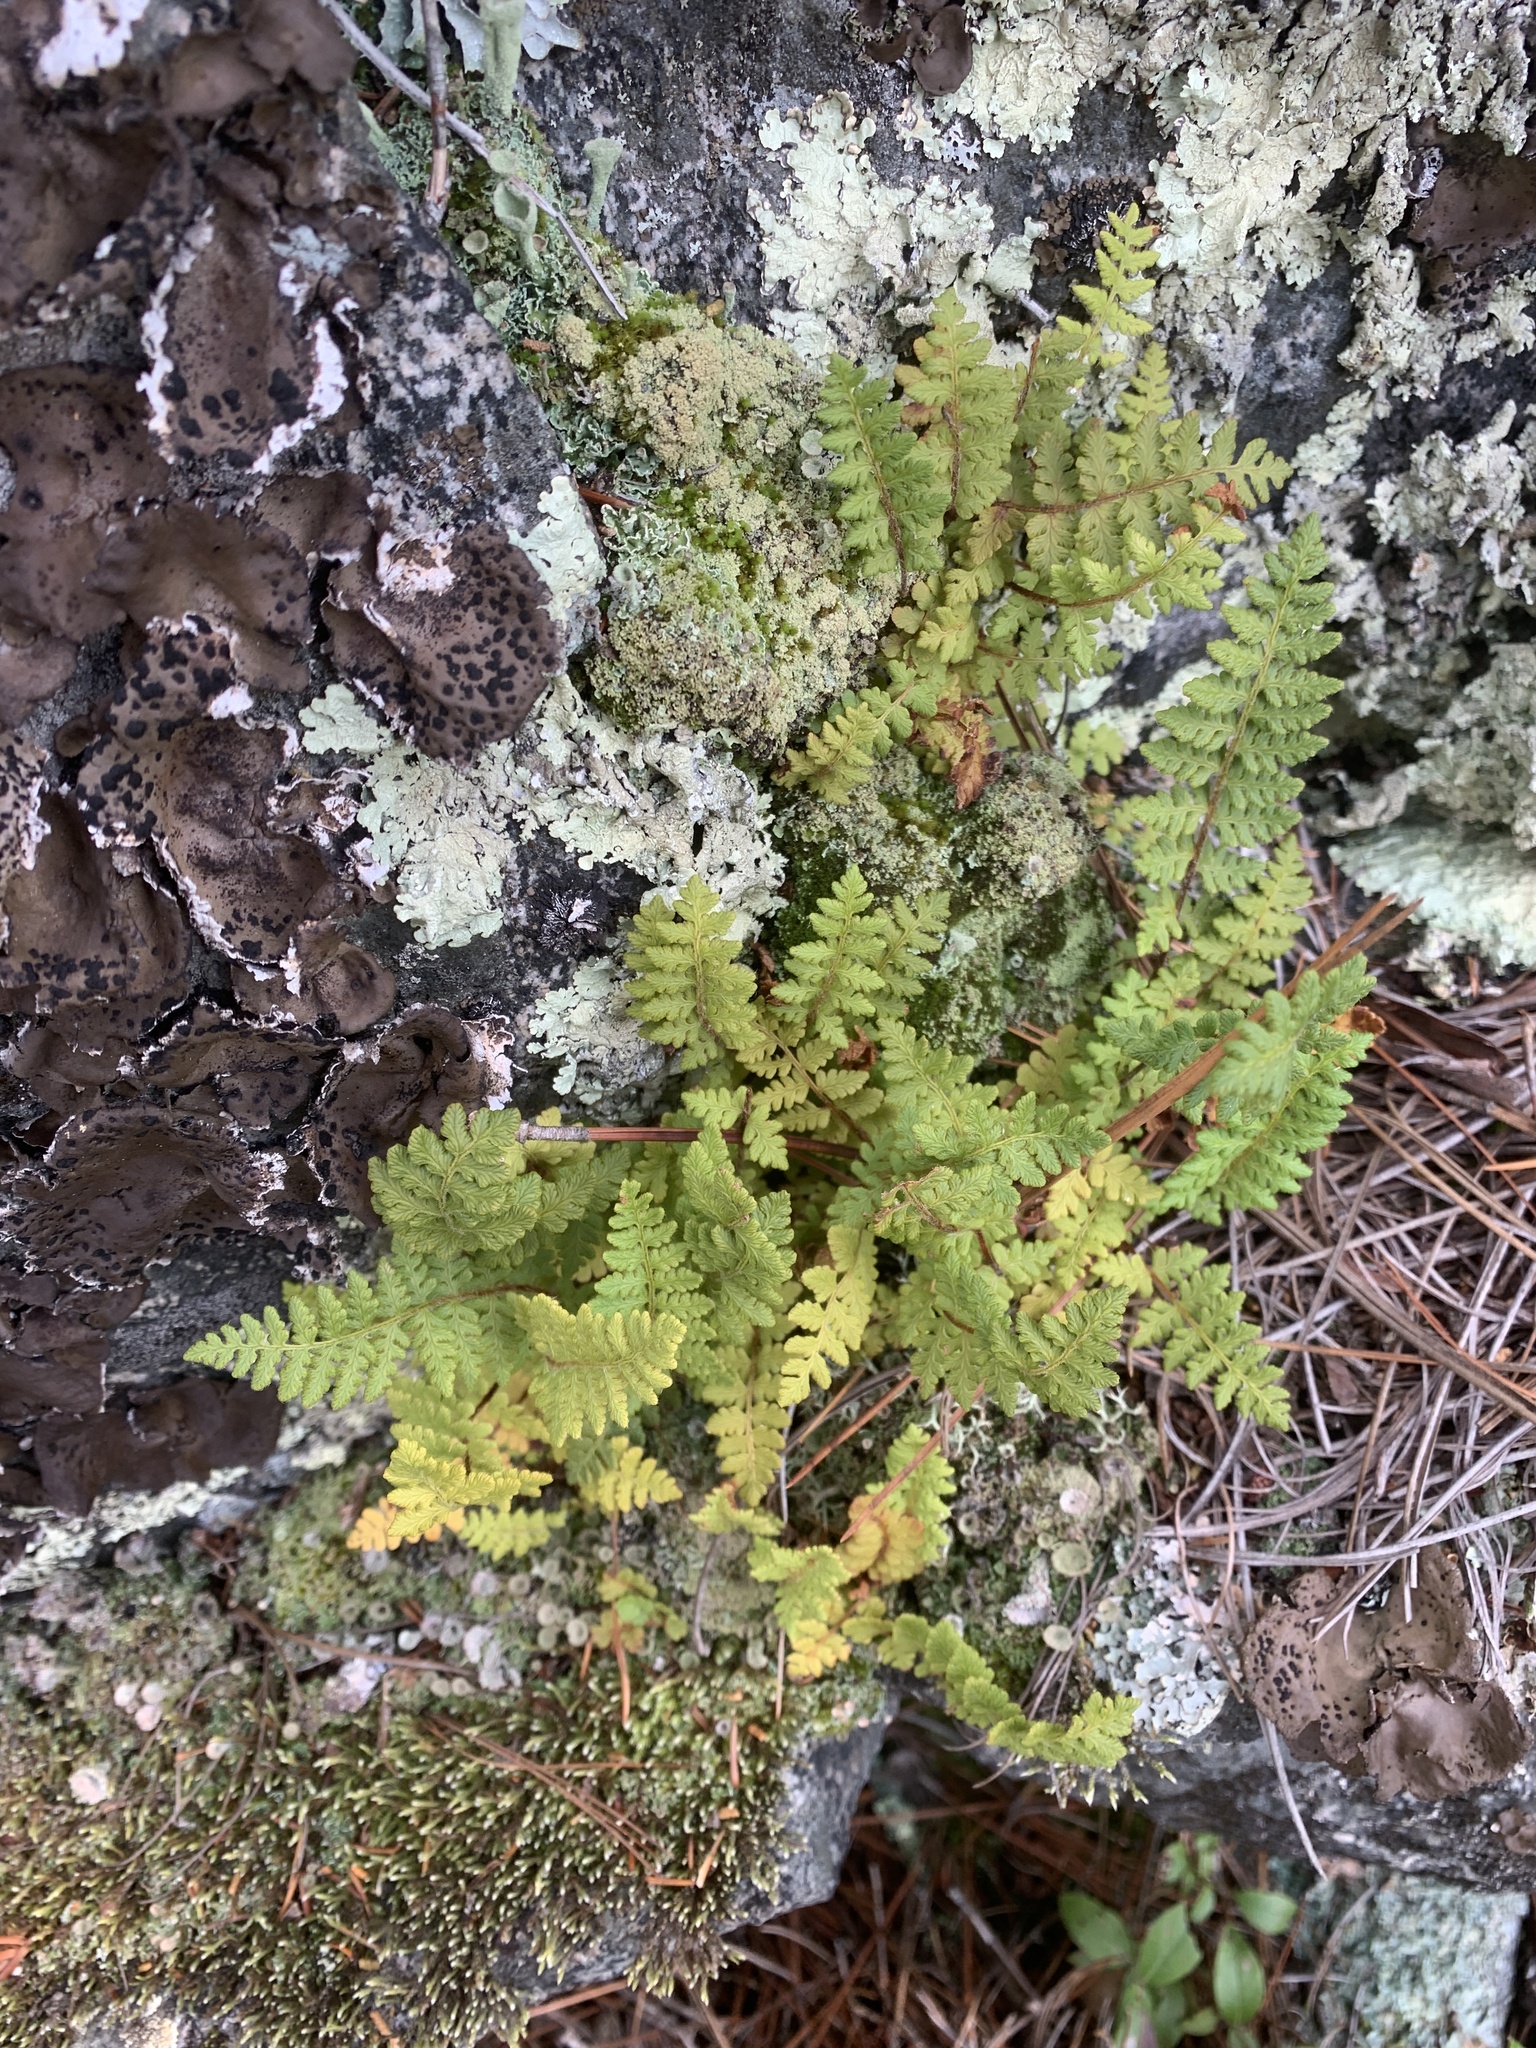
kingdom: Plantae
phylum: Tracheophyta
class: Polypodiopsida
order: Polypodiales
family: Woodsiaceae
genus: Woodsia
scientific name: Woodsia ilvensis
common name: Fragrant woodsia
